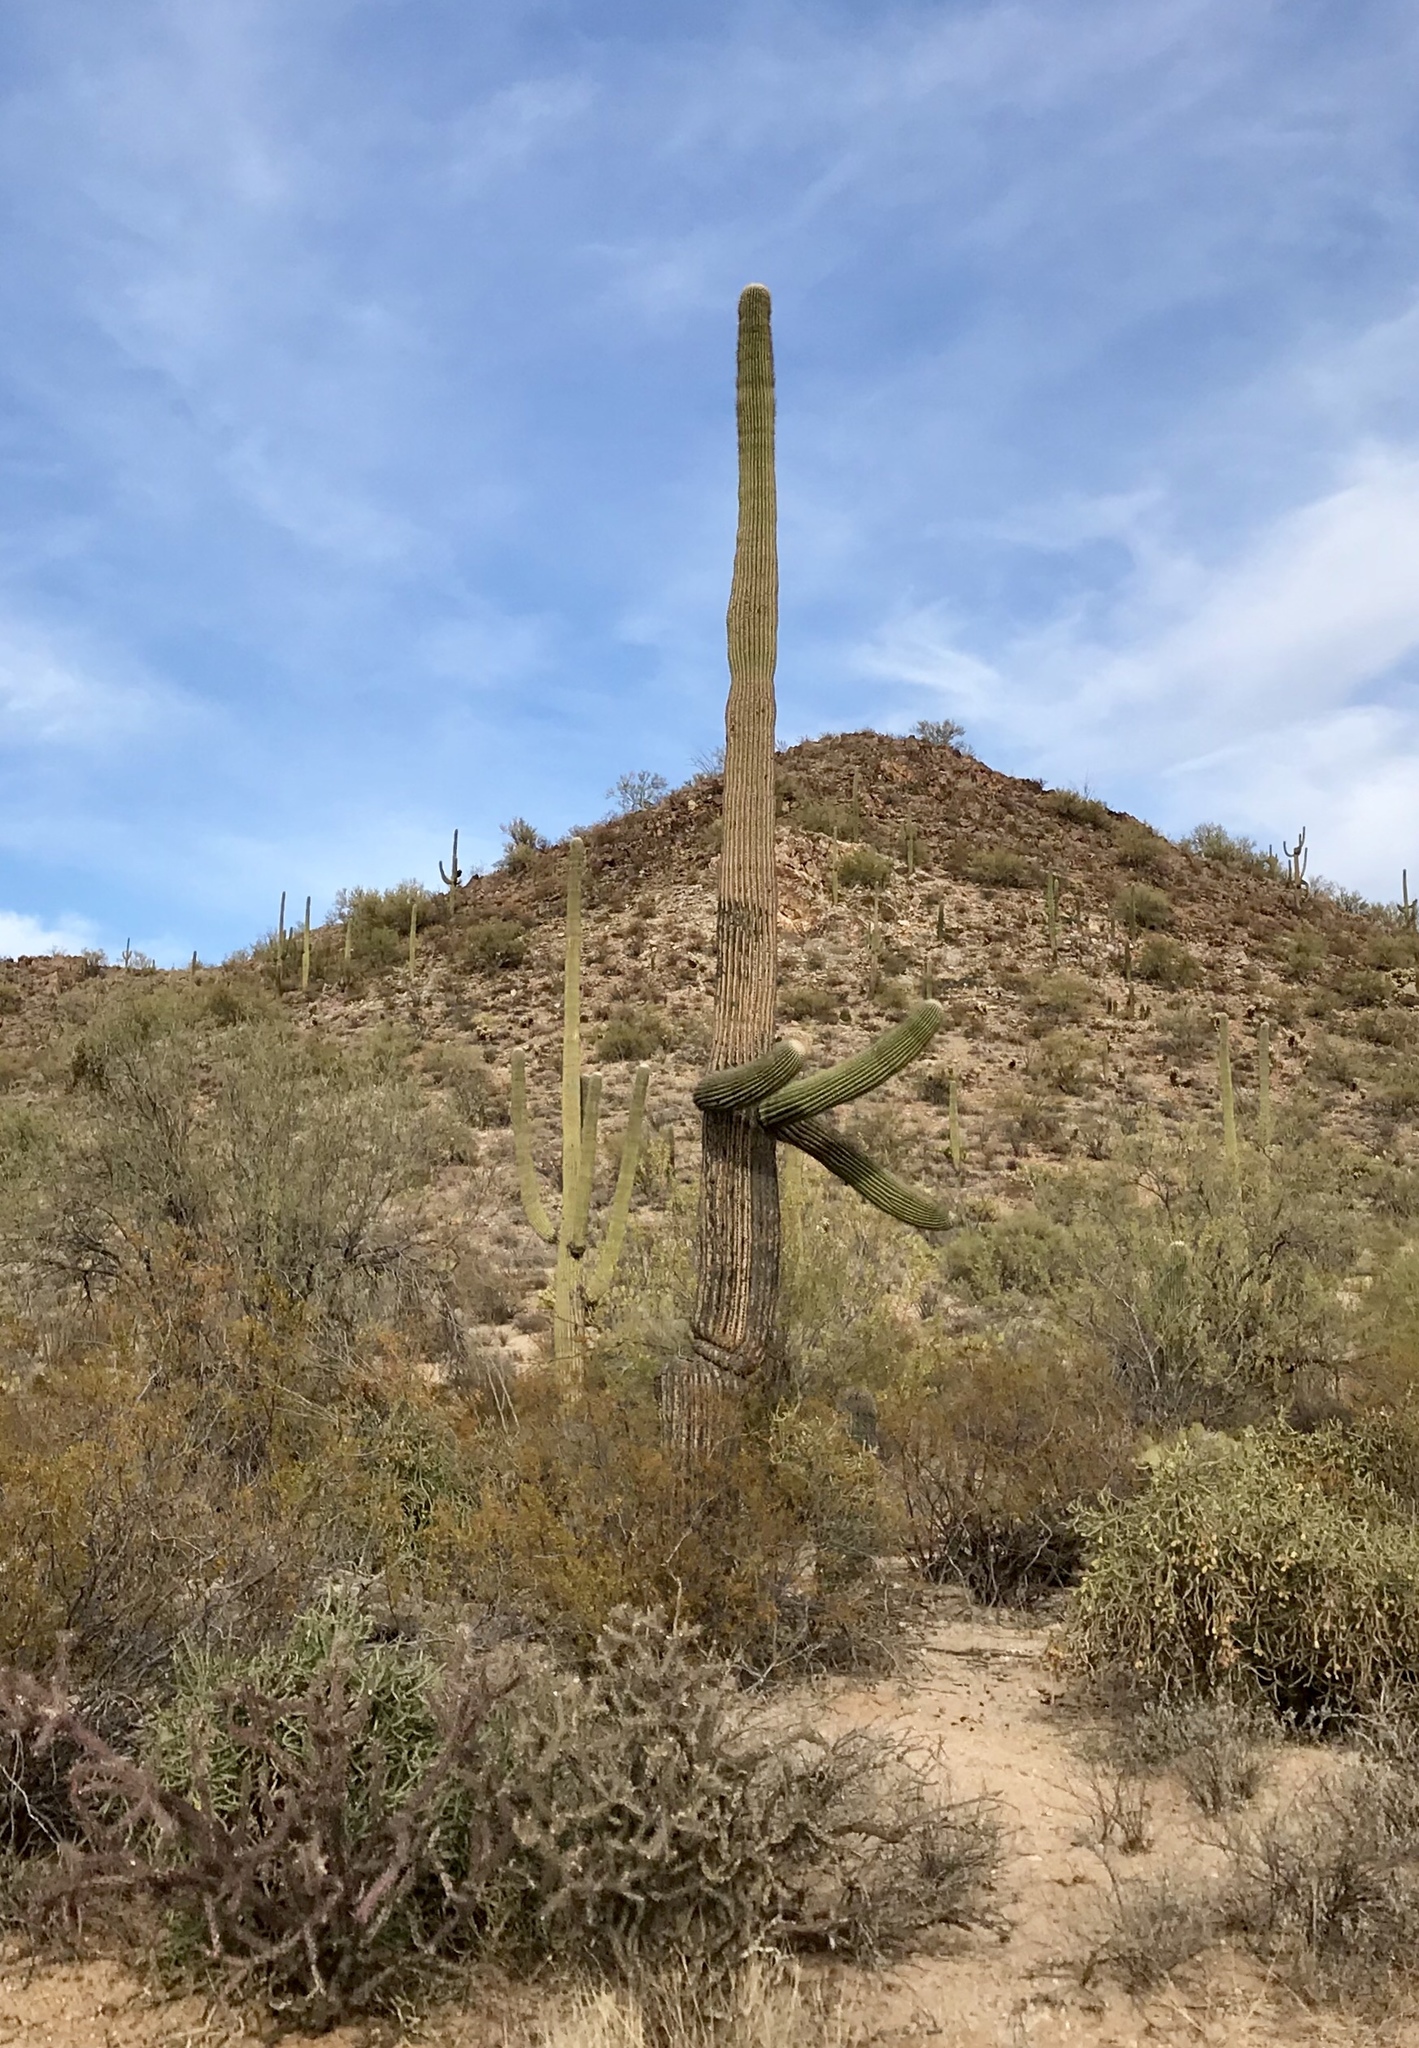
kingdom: Plantae
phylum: Tracheophyta
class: Magnoliopsida
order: Caryophyllales
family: Cactaceae
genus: Carnegiea
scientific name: Carnegiea gigantea
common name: Saguaro
